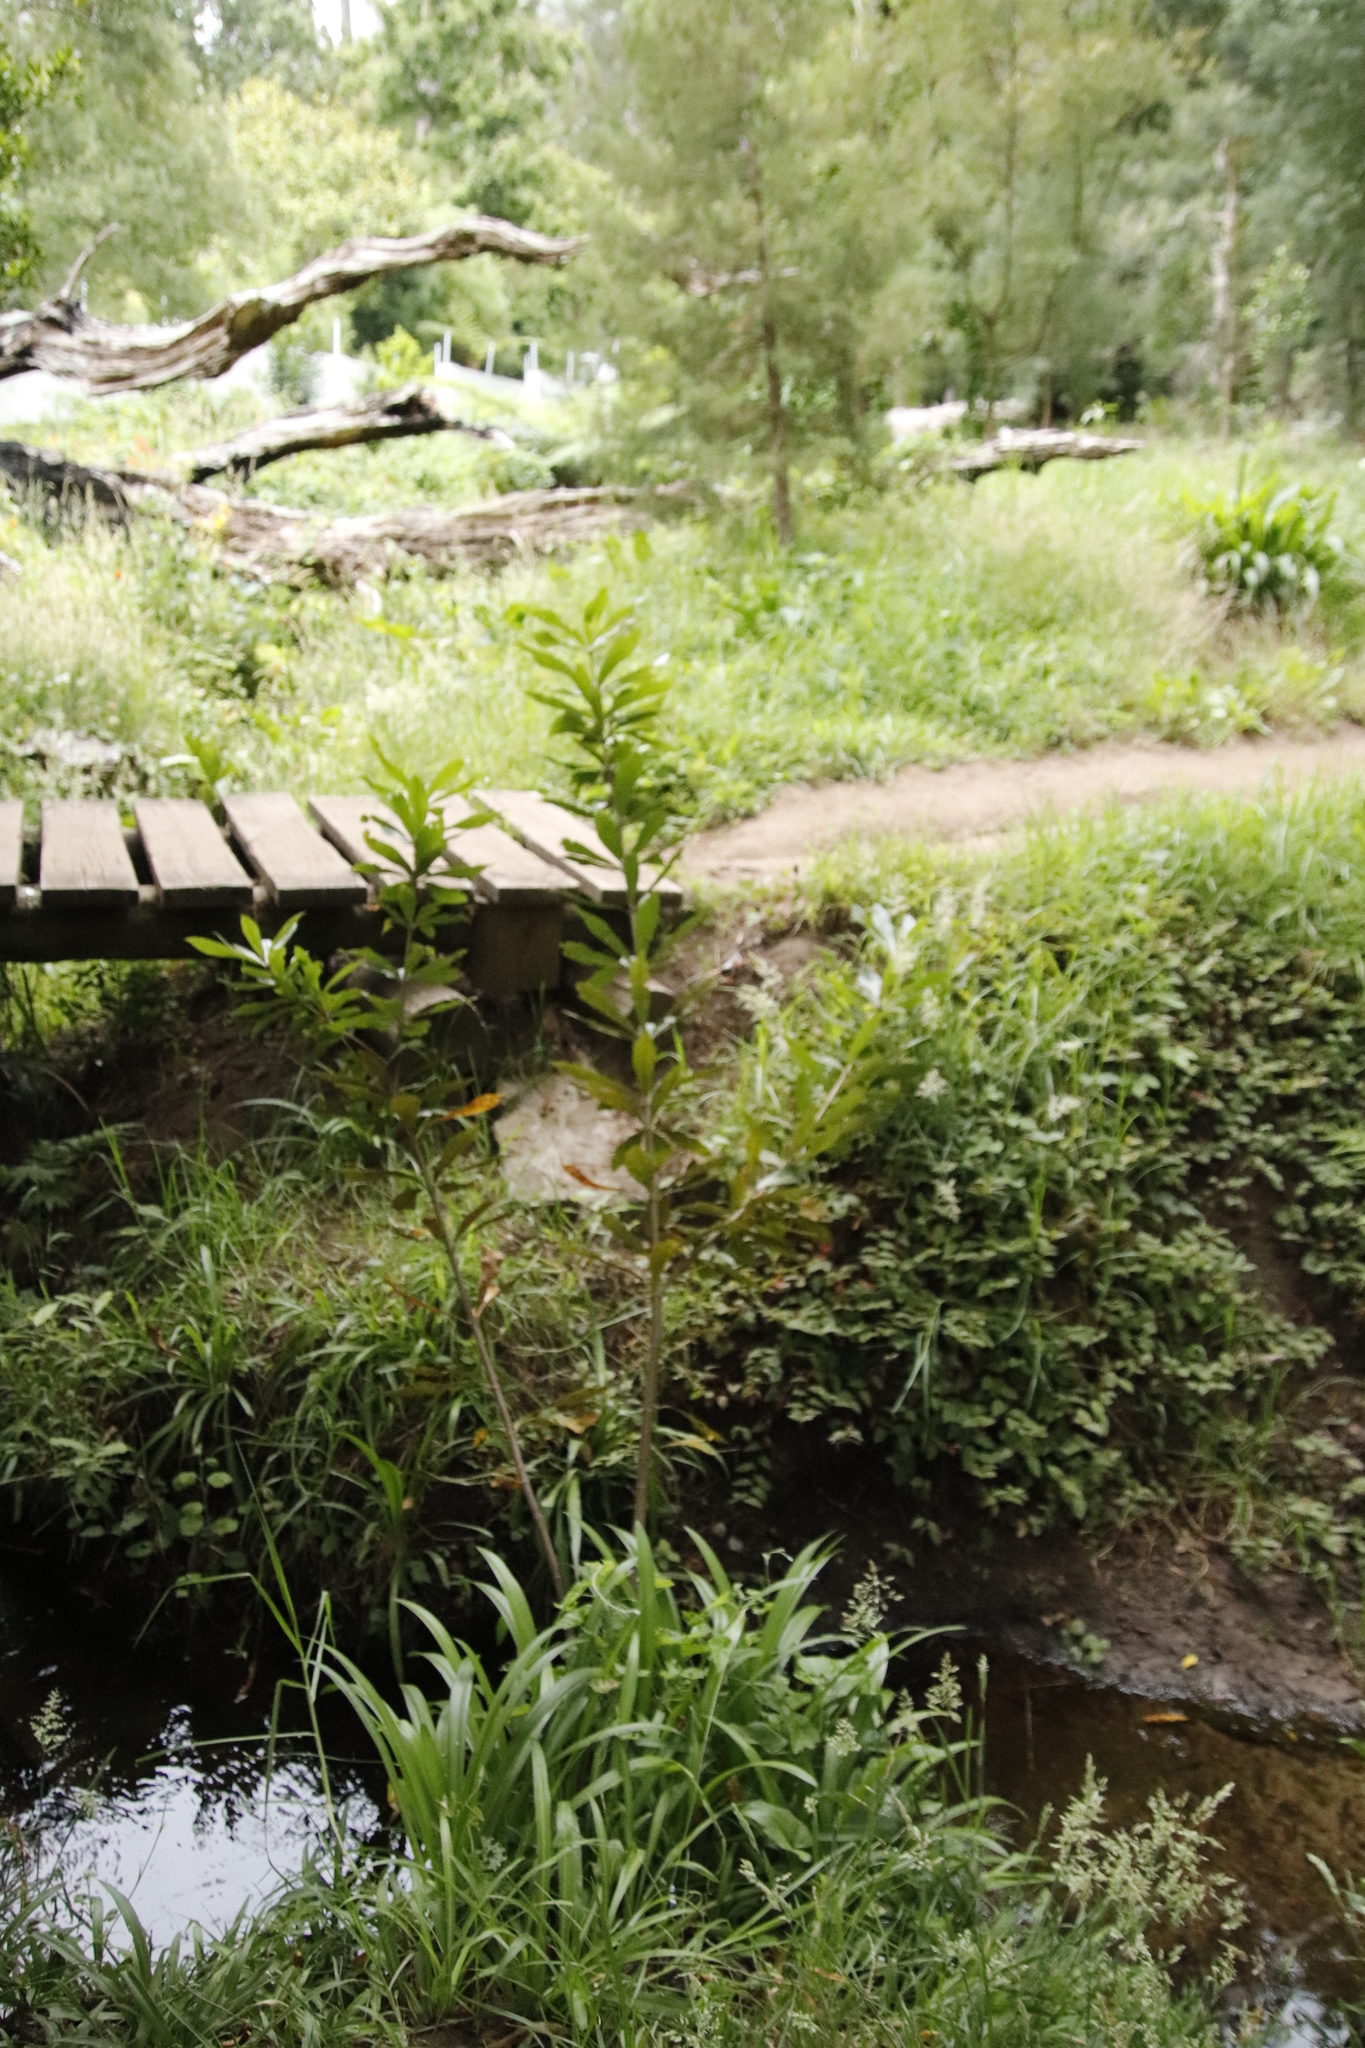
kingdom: Plantae
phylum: Tracheophyta
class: Magnoliopsida
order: Proteales
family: Proteaceae
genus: Brabejum
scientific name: Brabejum stellatifolium
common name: Wild almond
